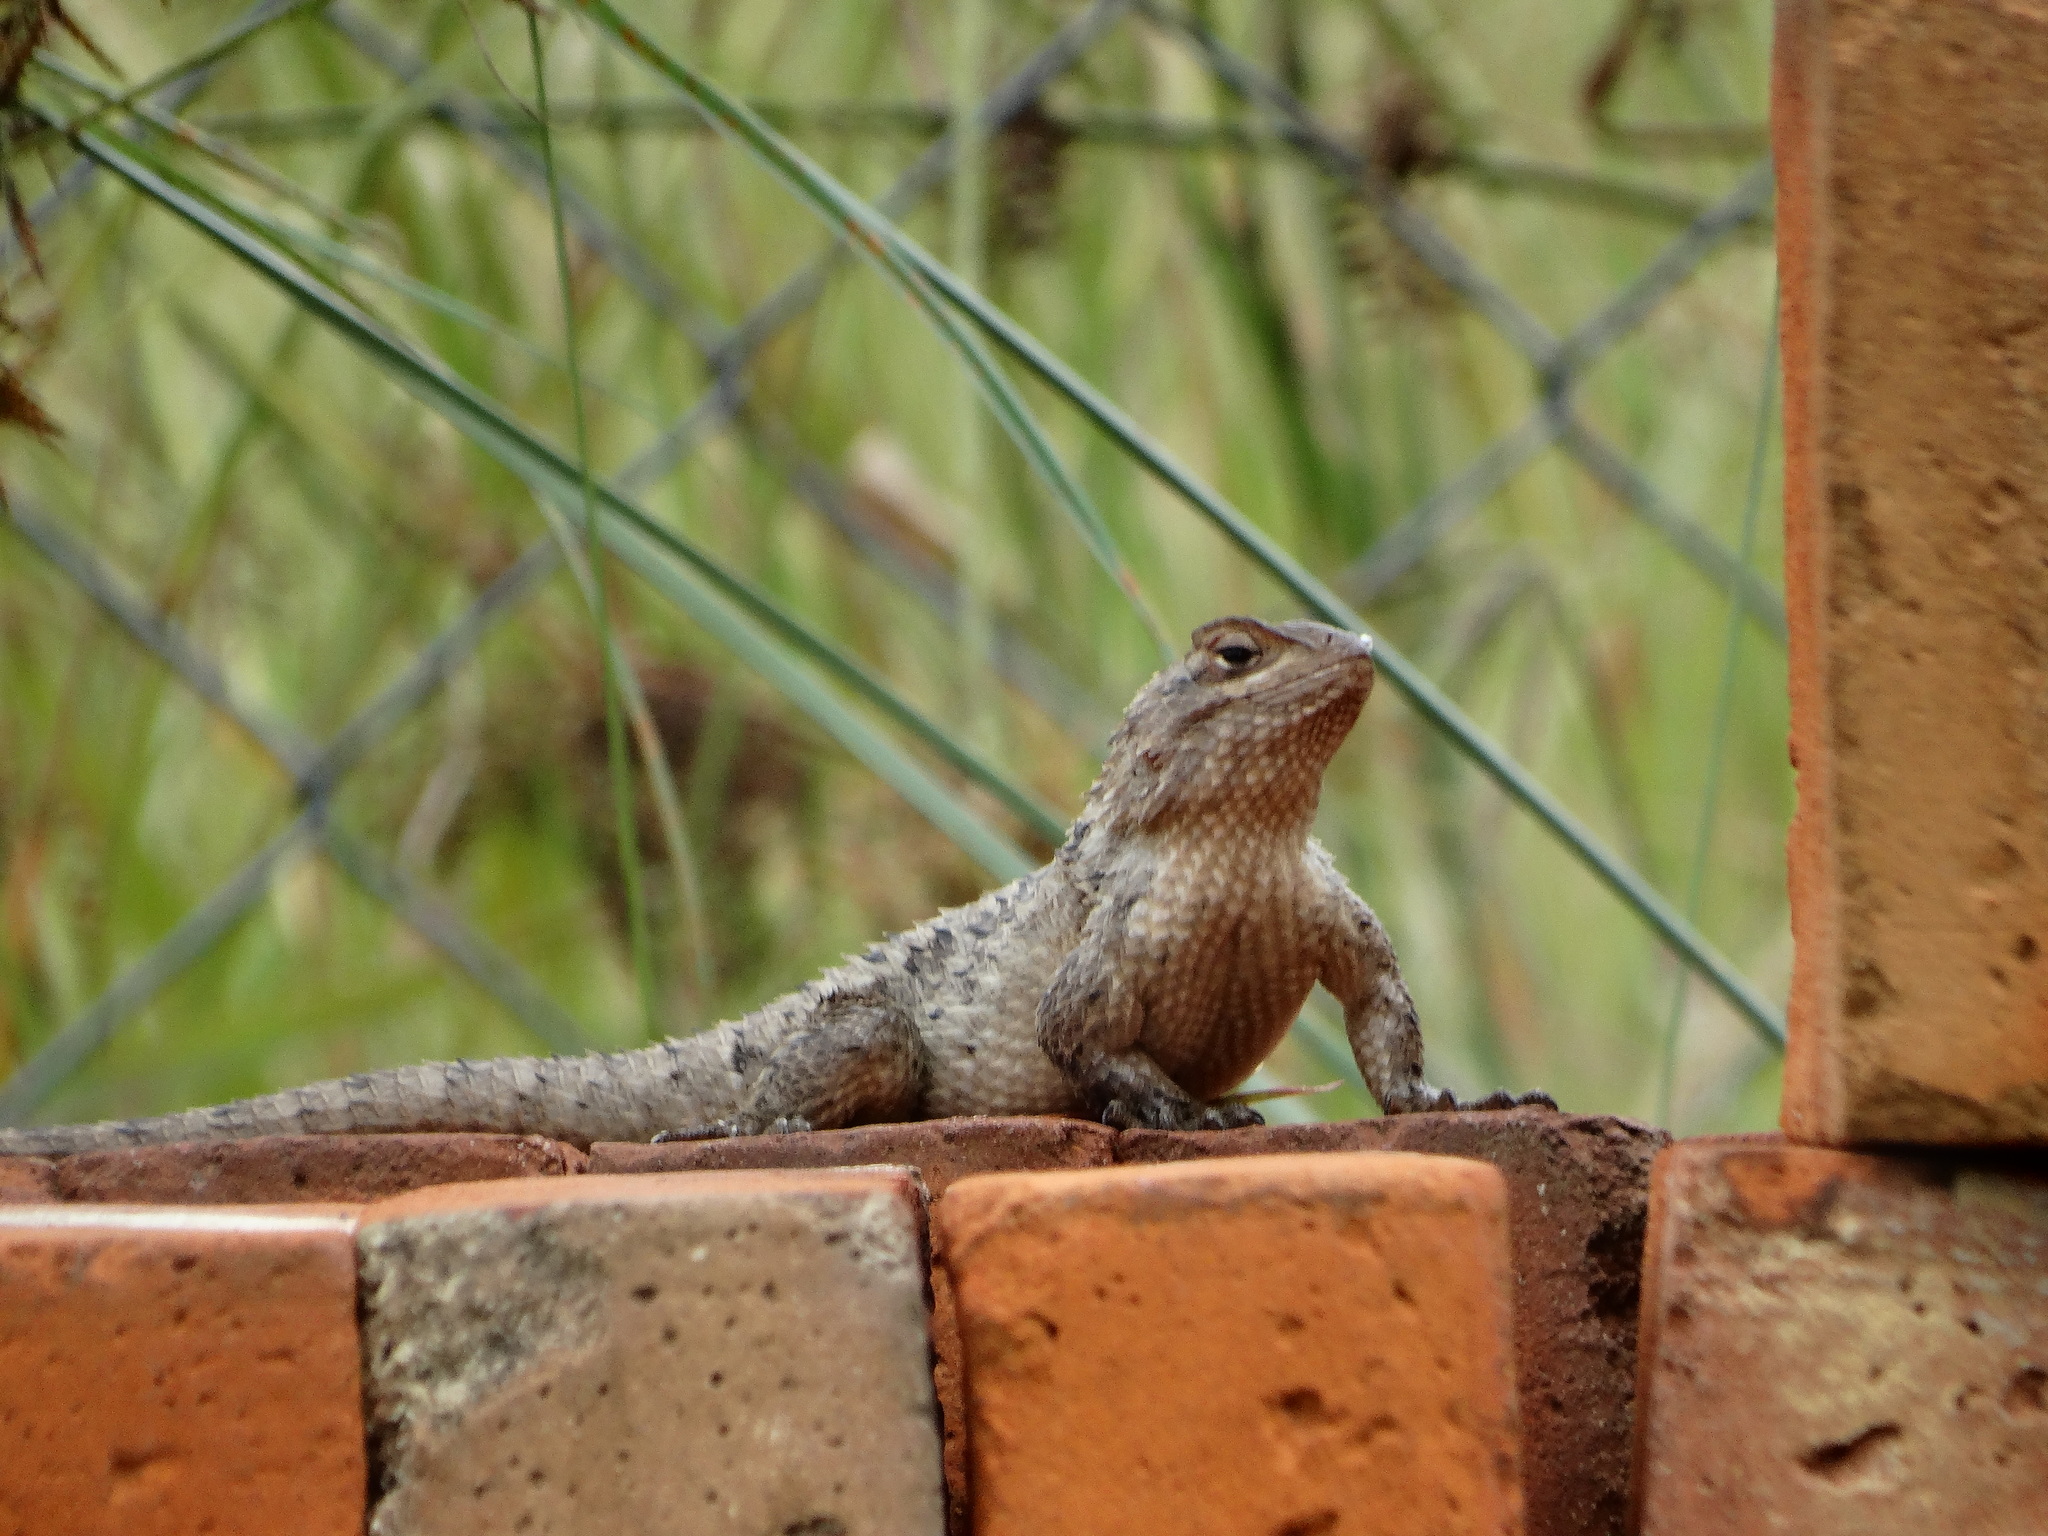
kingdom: Animalia
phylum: Chordata
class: Squamata
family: Phrynosomatidae
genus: Sceloporus
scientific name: Sceloporus spinosus
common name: Blue-spotted spiny lizard [caeruleopunctatus]
